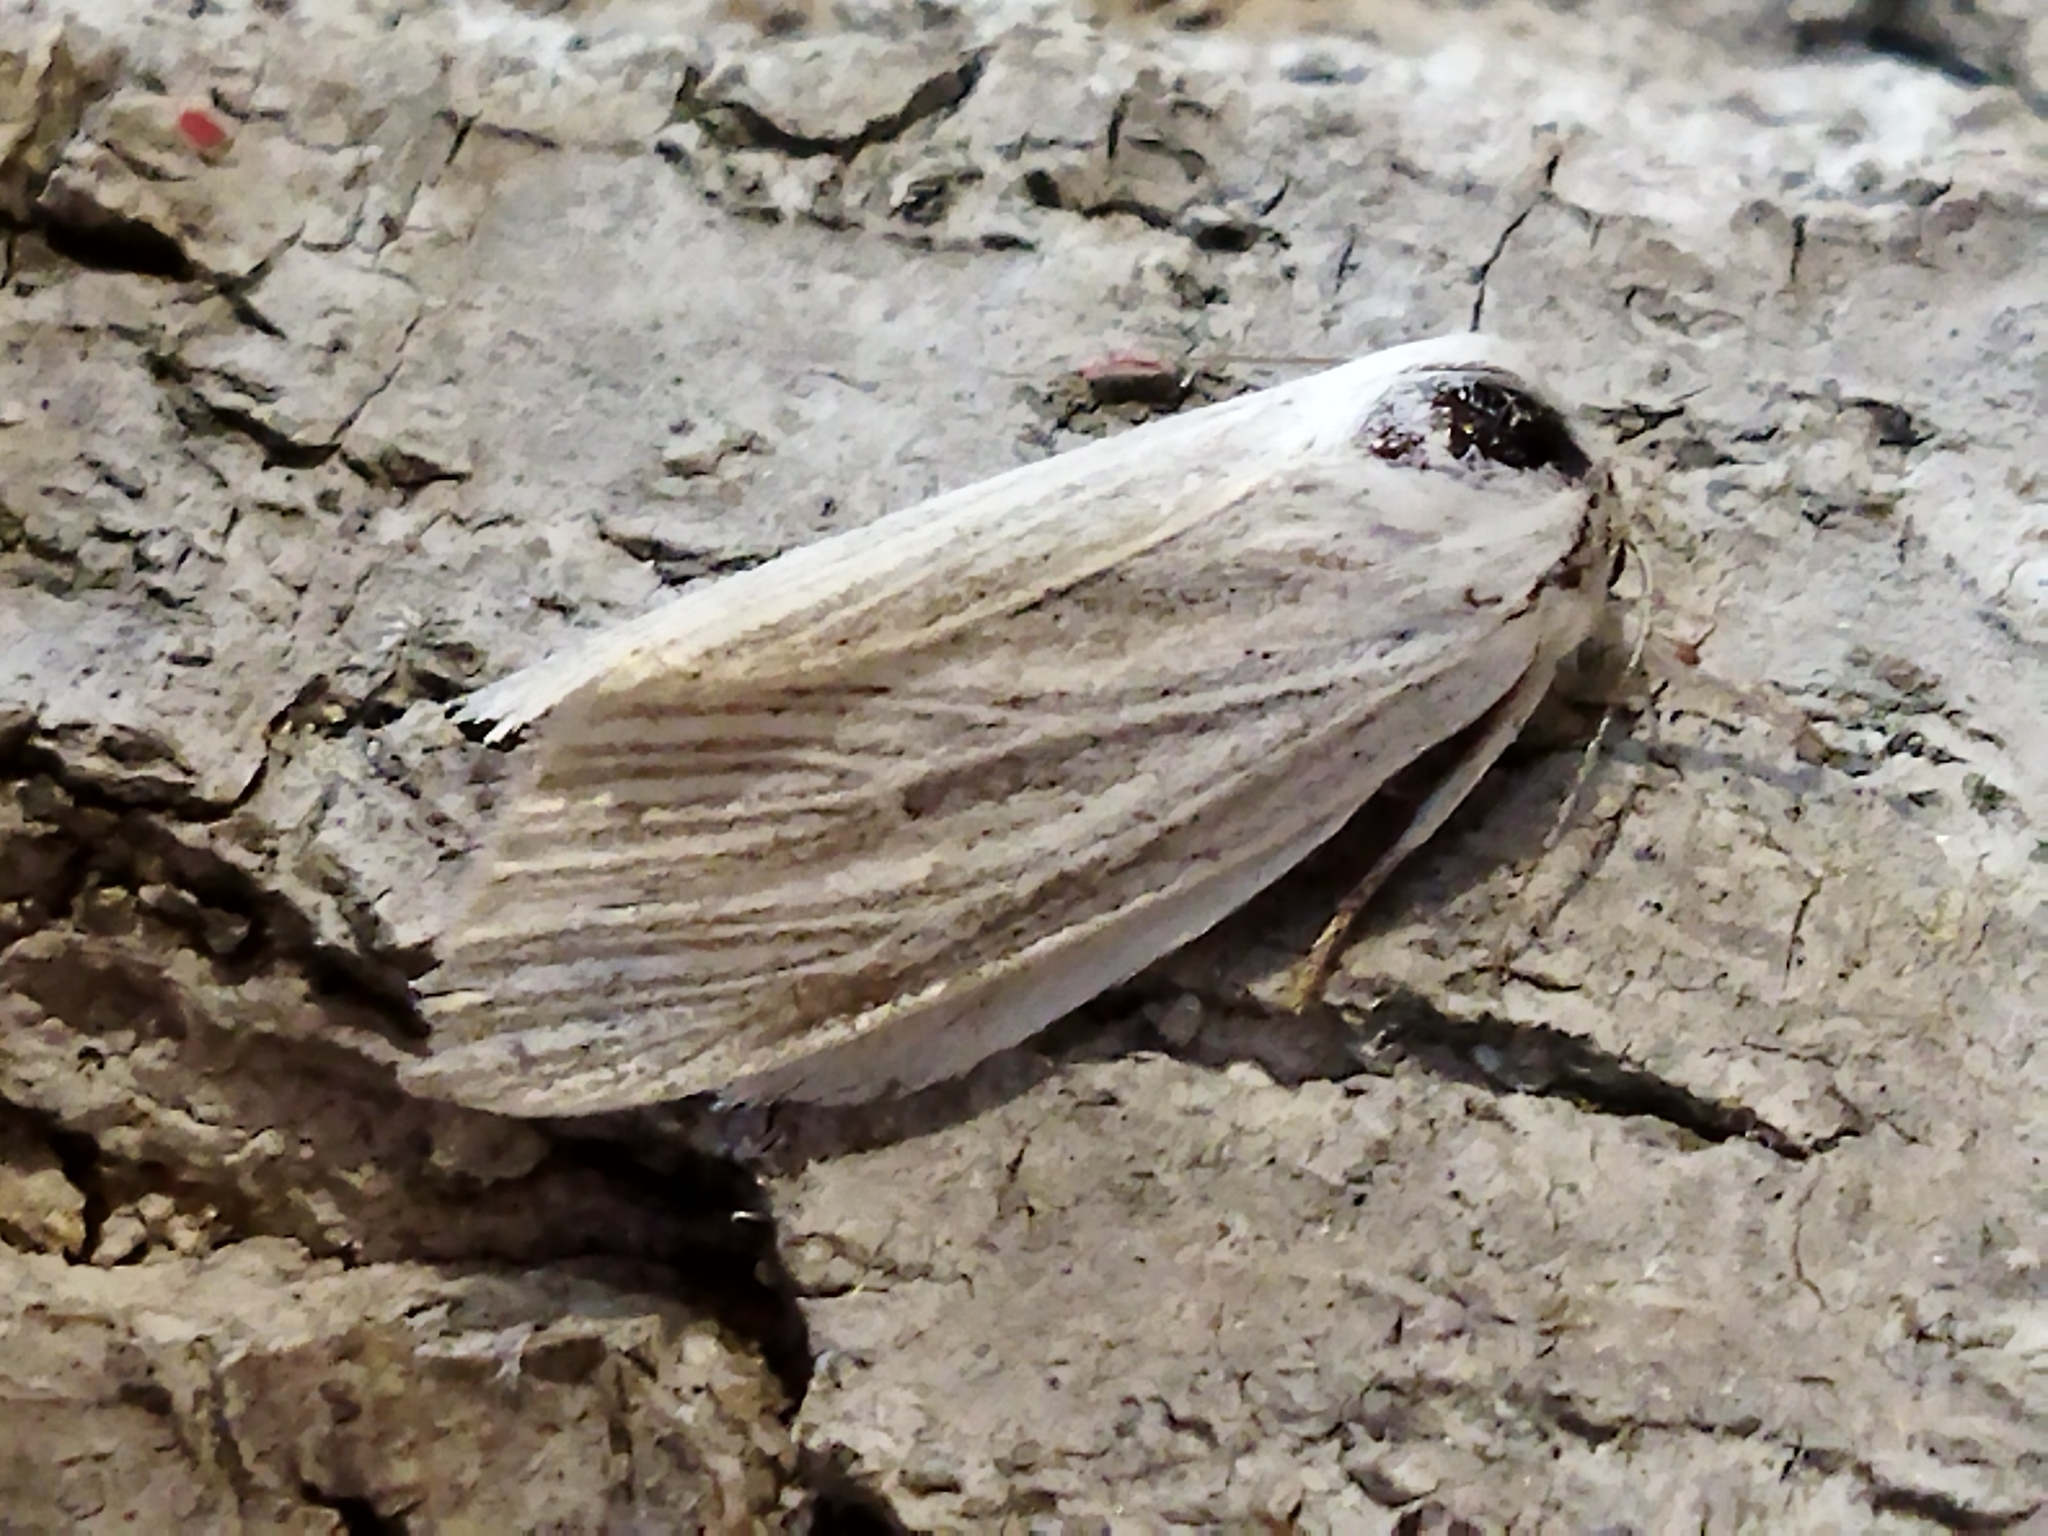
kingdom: Animalia
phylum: Arthropoda
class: Insecta
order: Lepidoptera
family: Noctuidae
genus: Acronicta
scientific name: Acronicta nervosa
